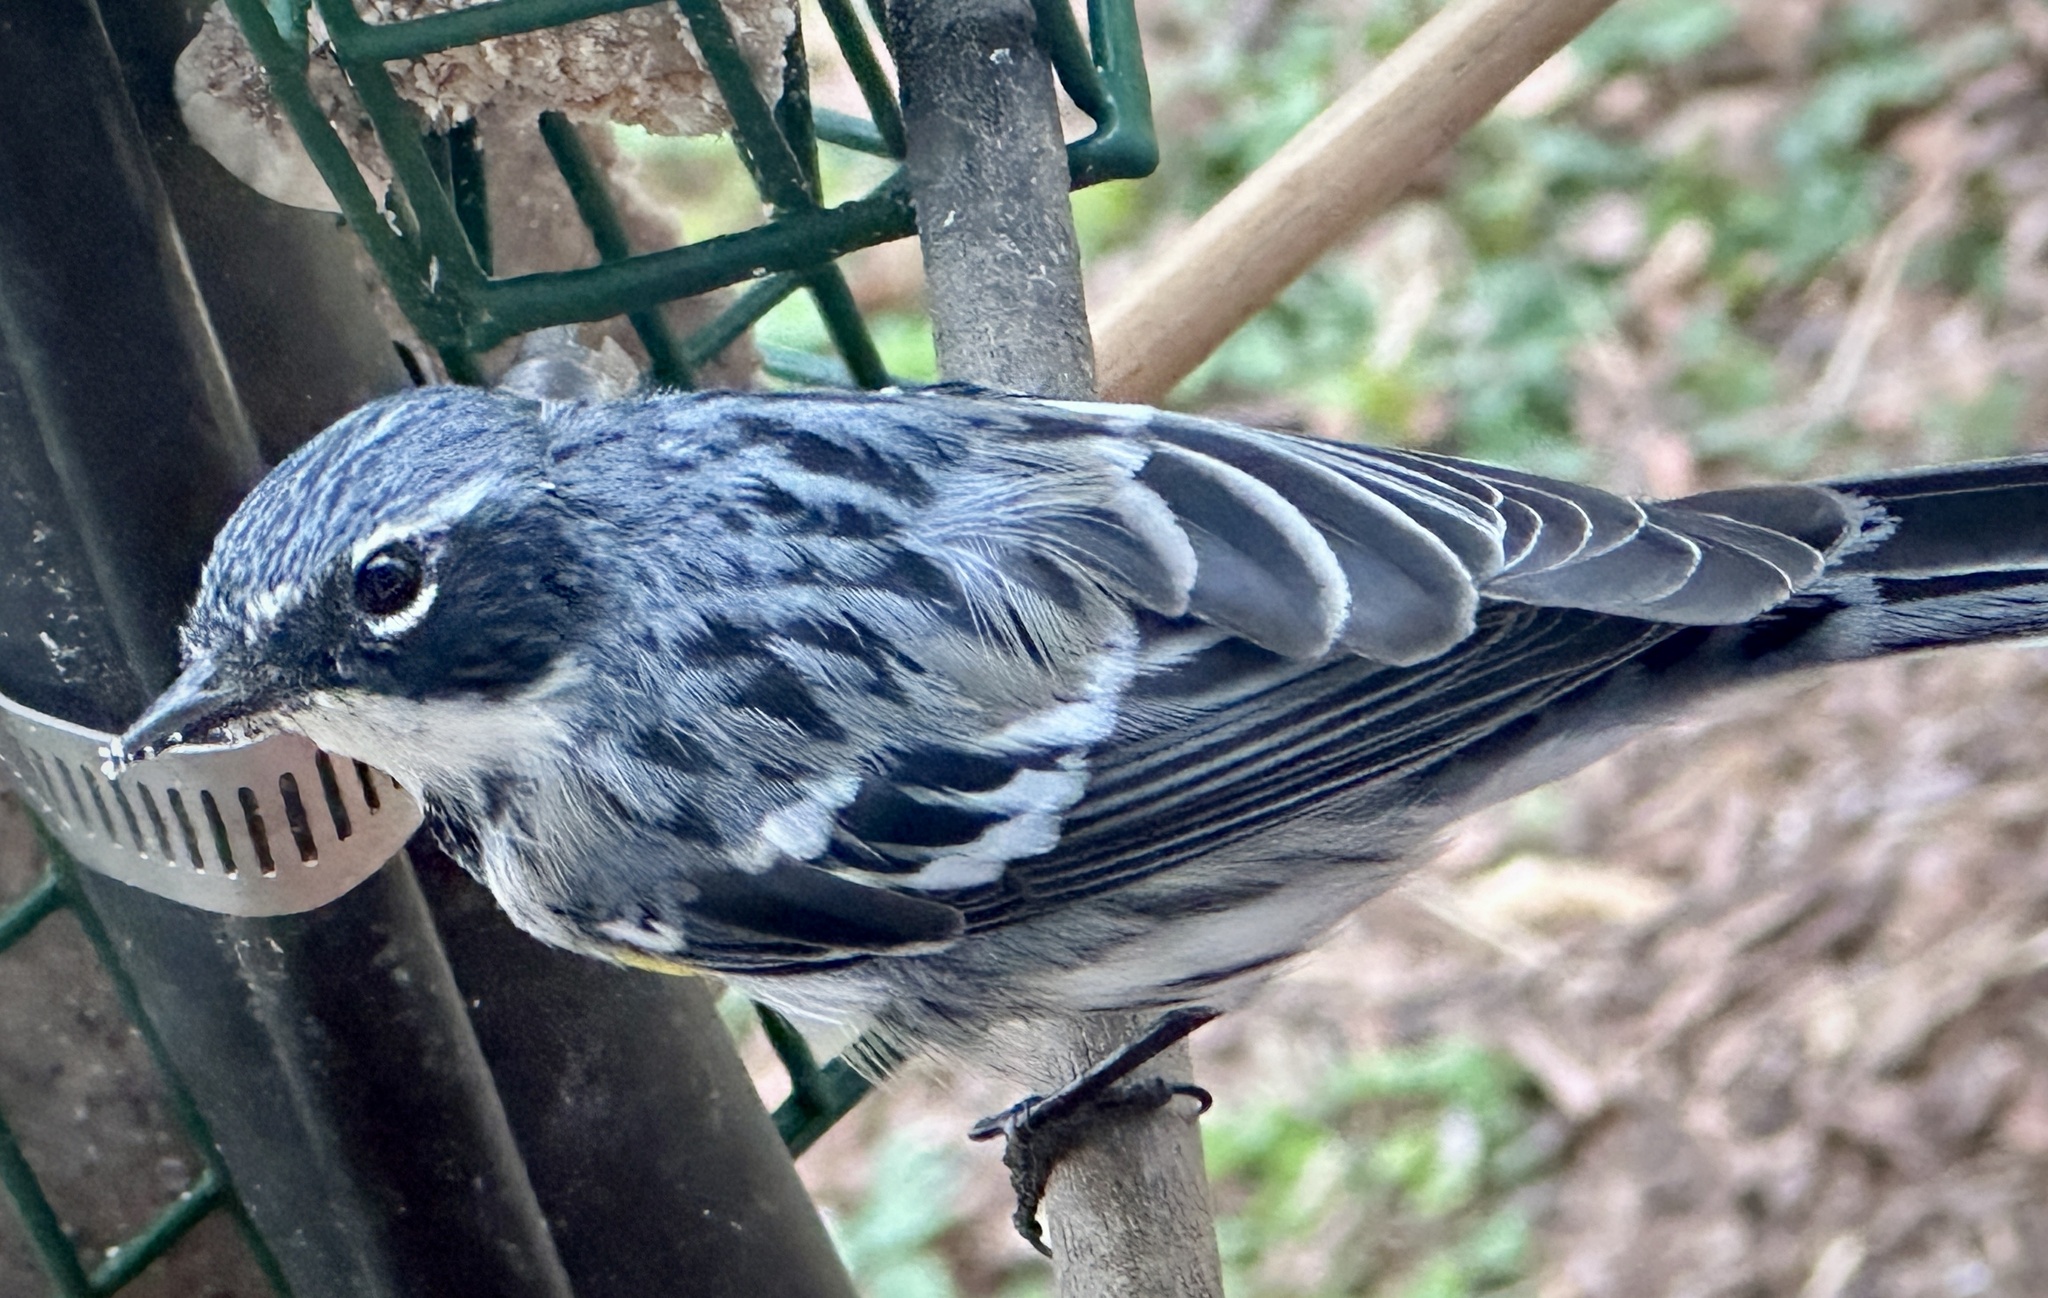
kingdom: Animalia
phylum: Chordata
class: Aves
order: Passeriformes
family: Parulidae
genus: Setophaga
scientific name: Setophaga coronata
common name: Myrtle warbler
